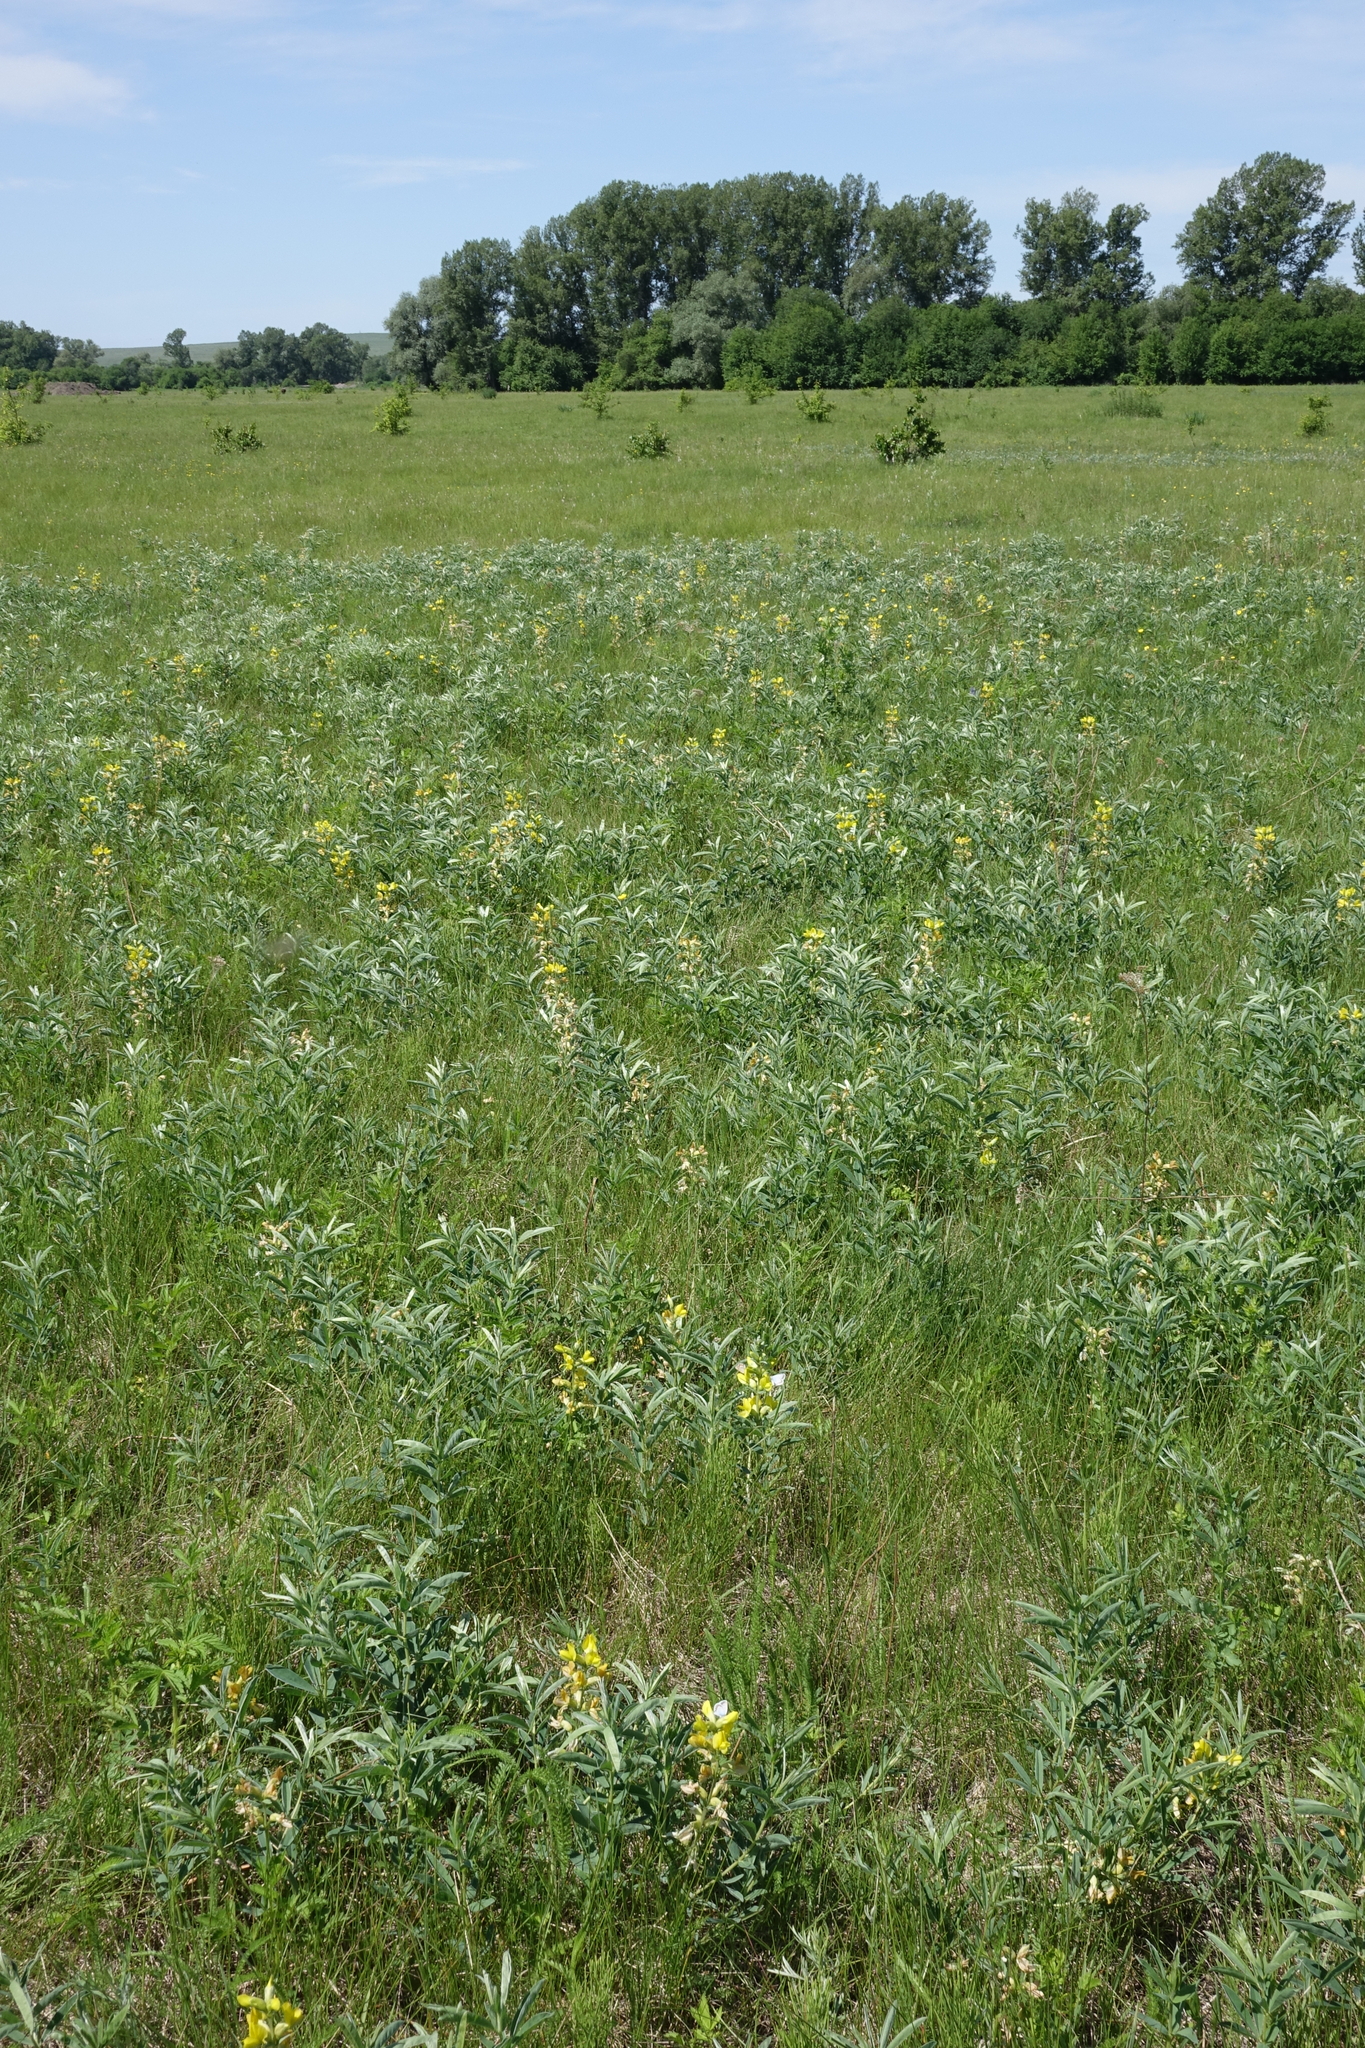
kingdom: Plantae
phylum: Tracheophyta
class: Magnoliopsida
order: Fabales
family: Fabaceae
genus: Thermopsis
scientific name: Thermopsis lanceolata
